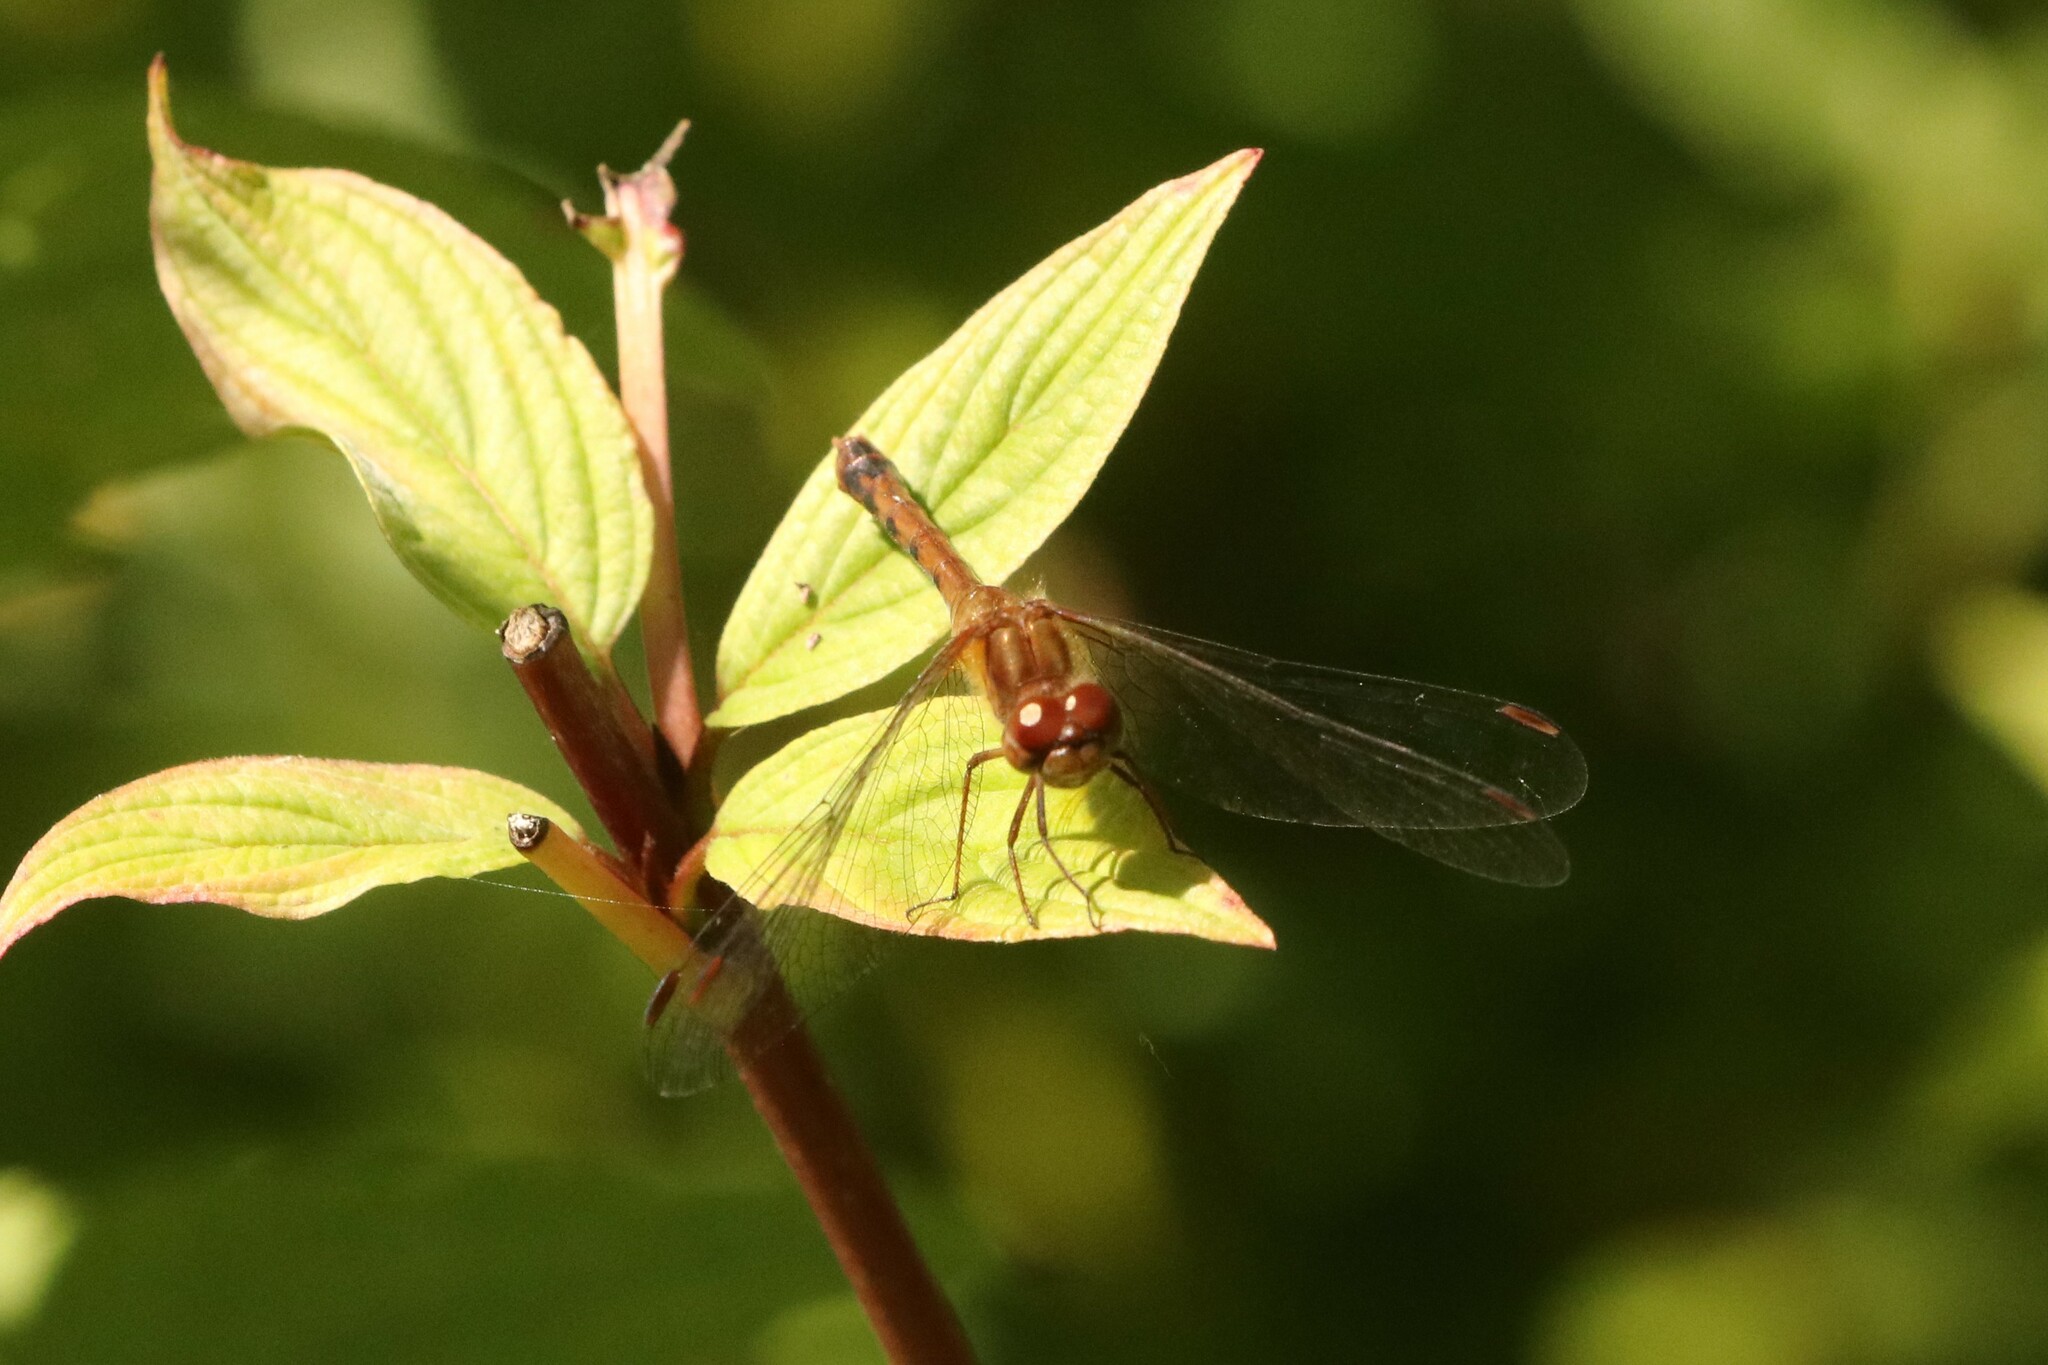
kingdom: Animalia
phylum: Arthropoda
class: Insecta
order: Odonata
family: Libellulidae
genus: Sympetrum
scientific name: Sympetrum vicinum
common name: Autumn meadowhawk
